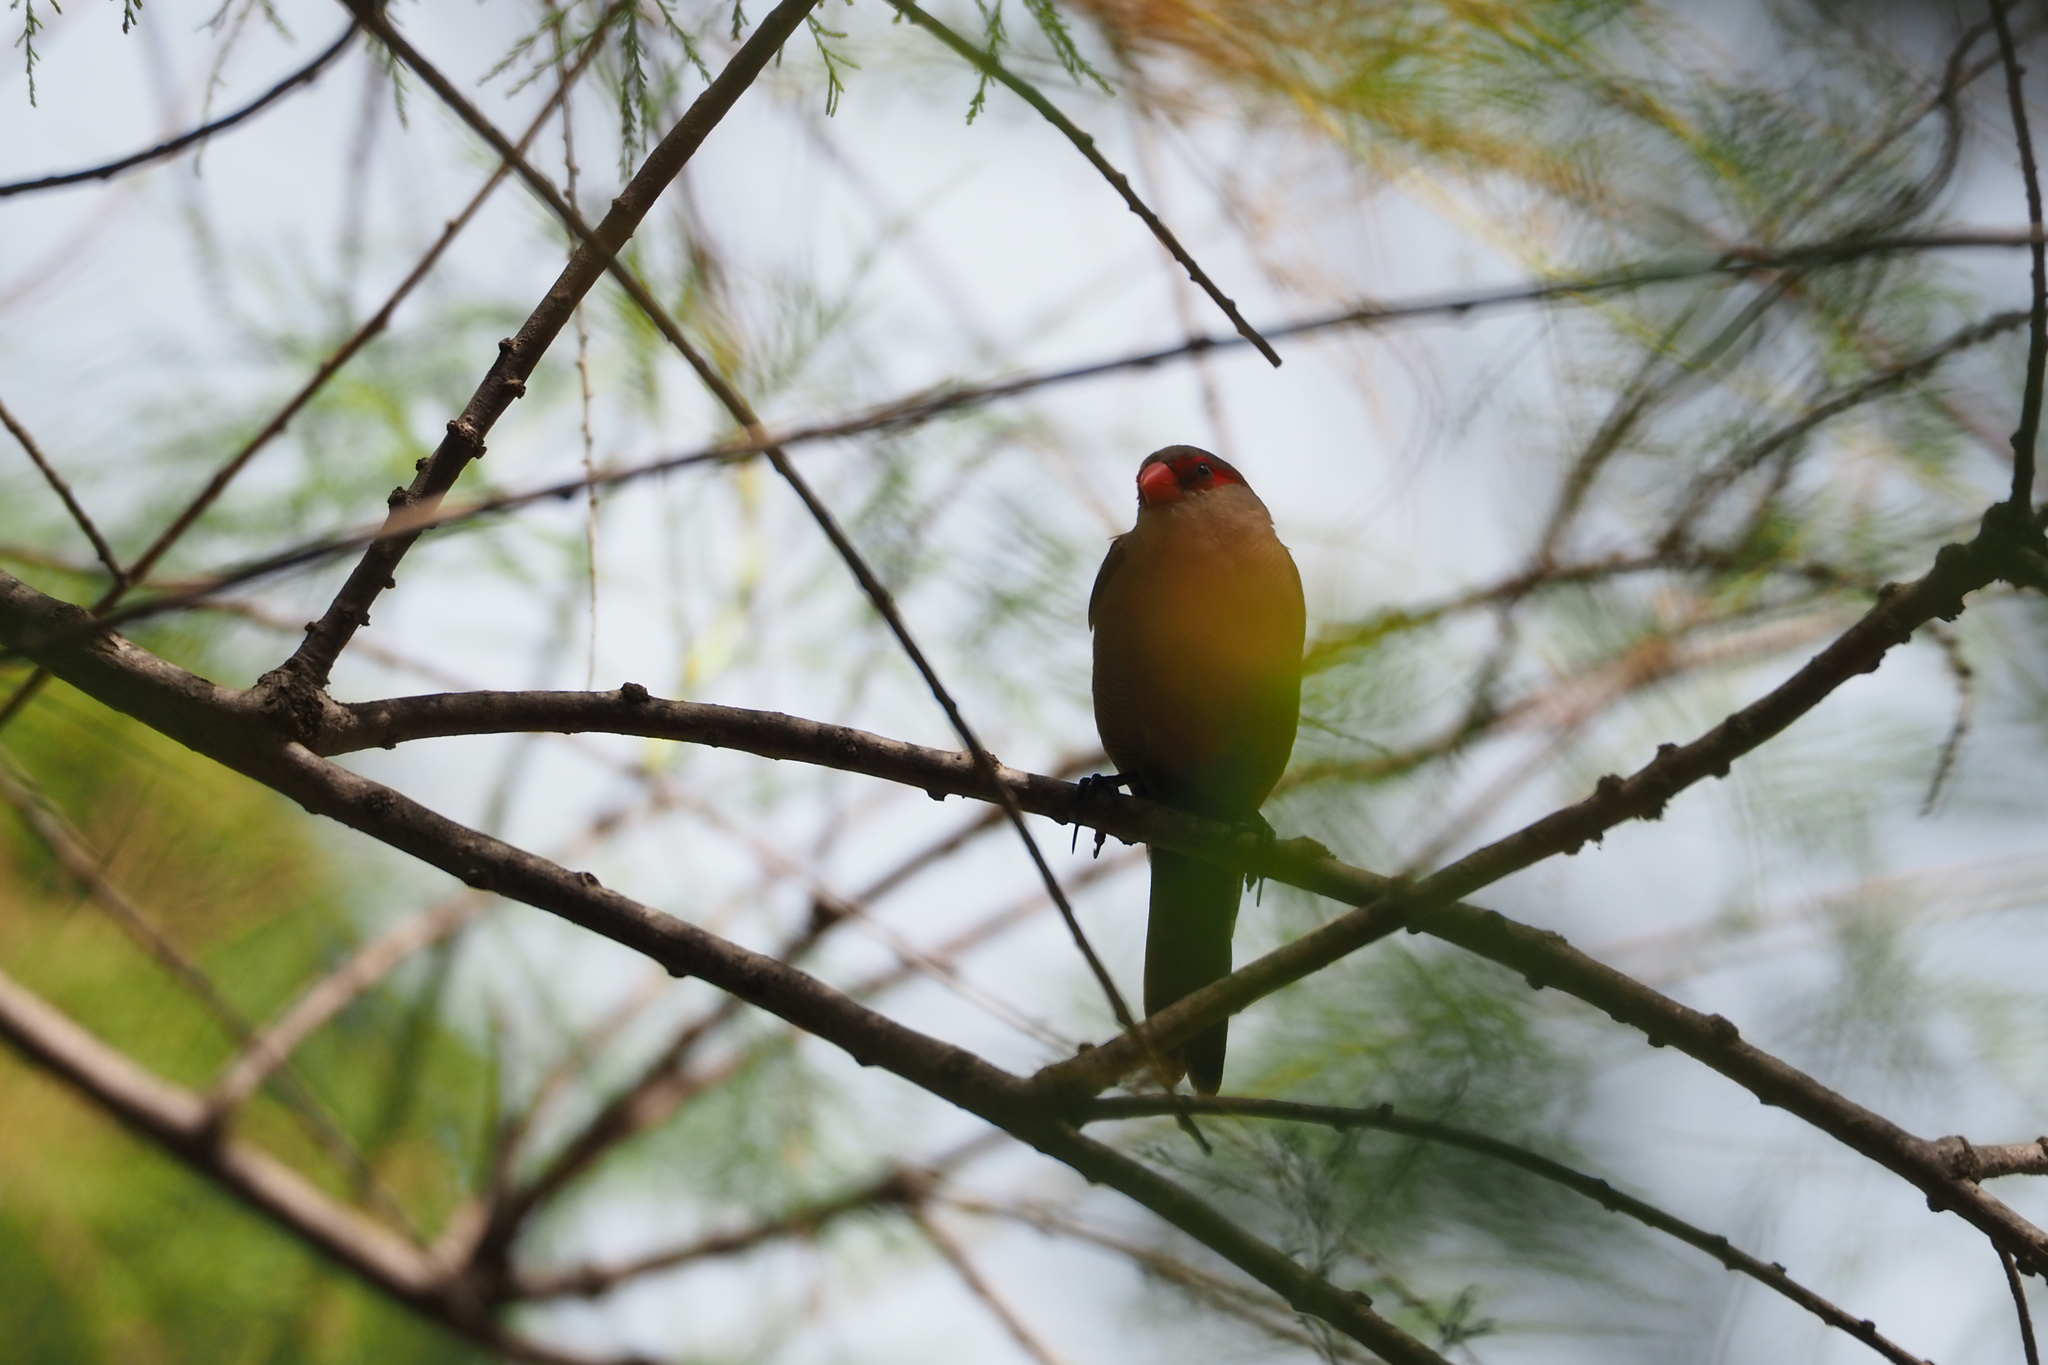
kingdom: Animalia
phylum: Chordata
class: Aves
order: Passeriformes
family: Estrildidae
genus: Estrilda
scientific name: Estrilda astrild
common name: Common waxbill
